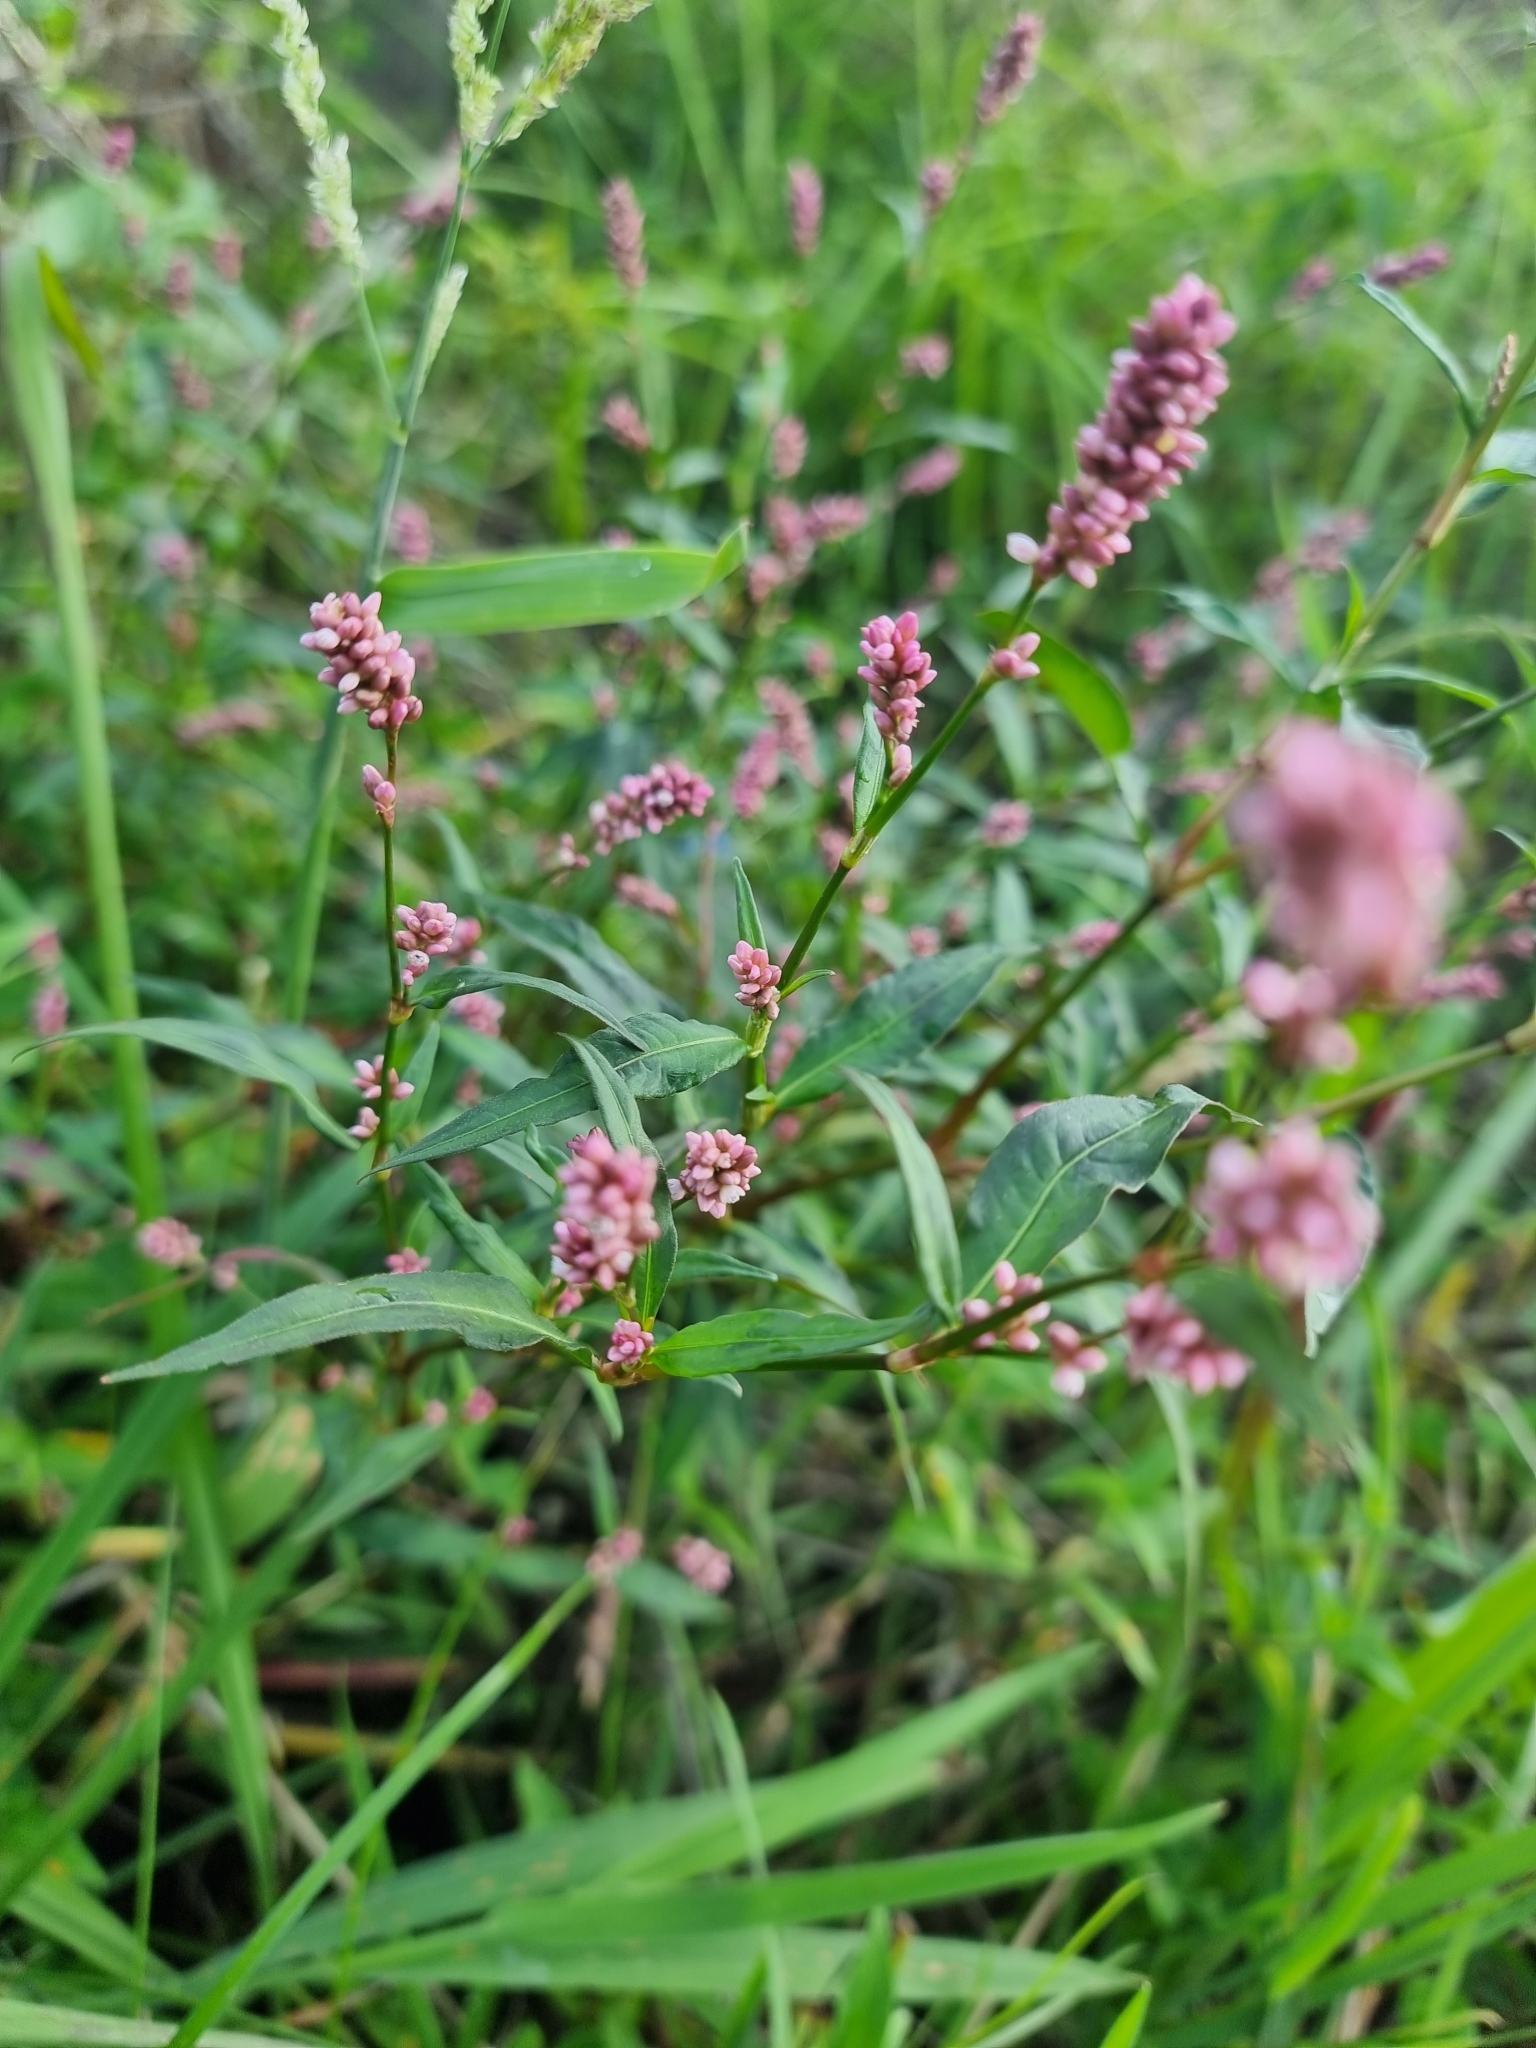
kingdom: Plantae
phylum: Tracheophyta
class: Magnoliopsida
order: Caryophyllales
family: Polygonaceae
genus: Persicaria
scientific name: Persicaria maculosa
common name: Redshank
